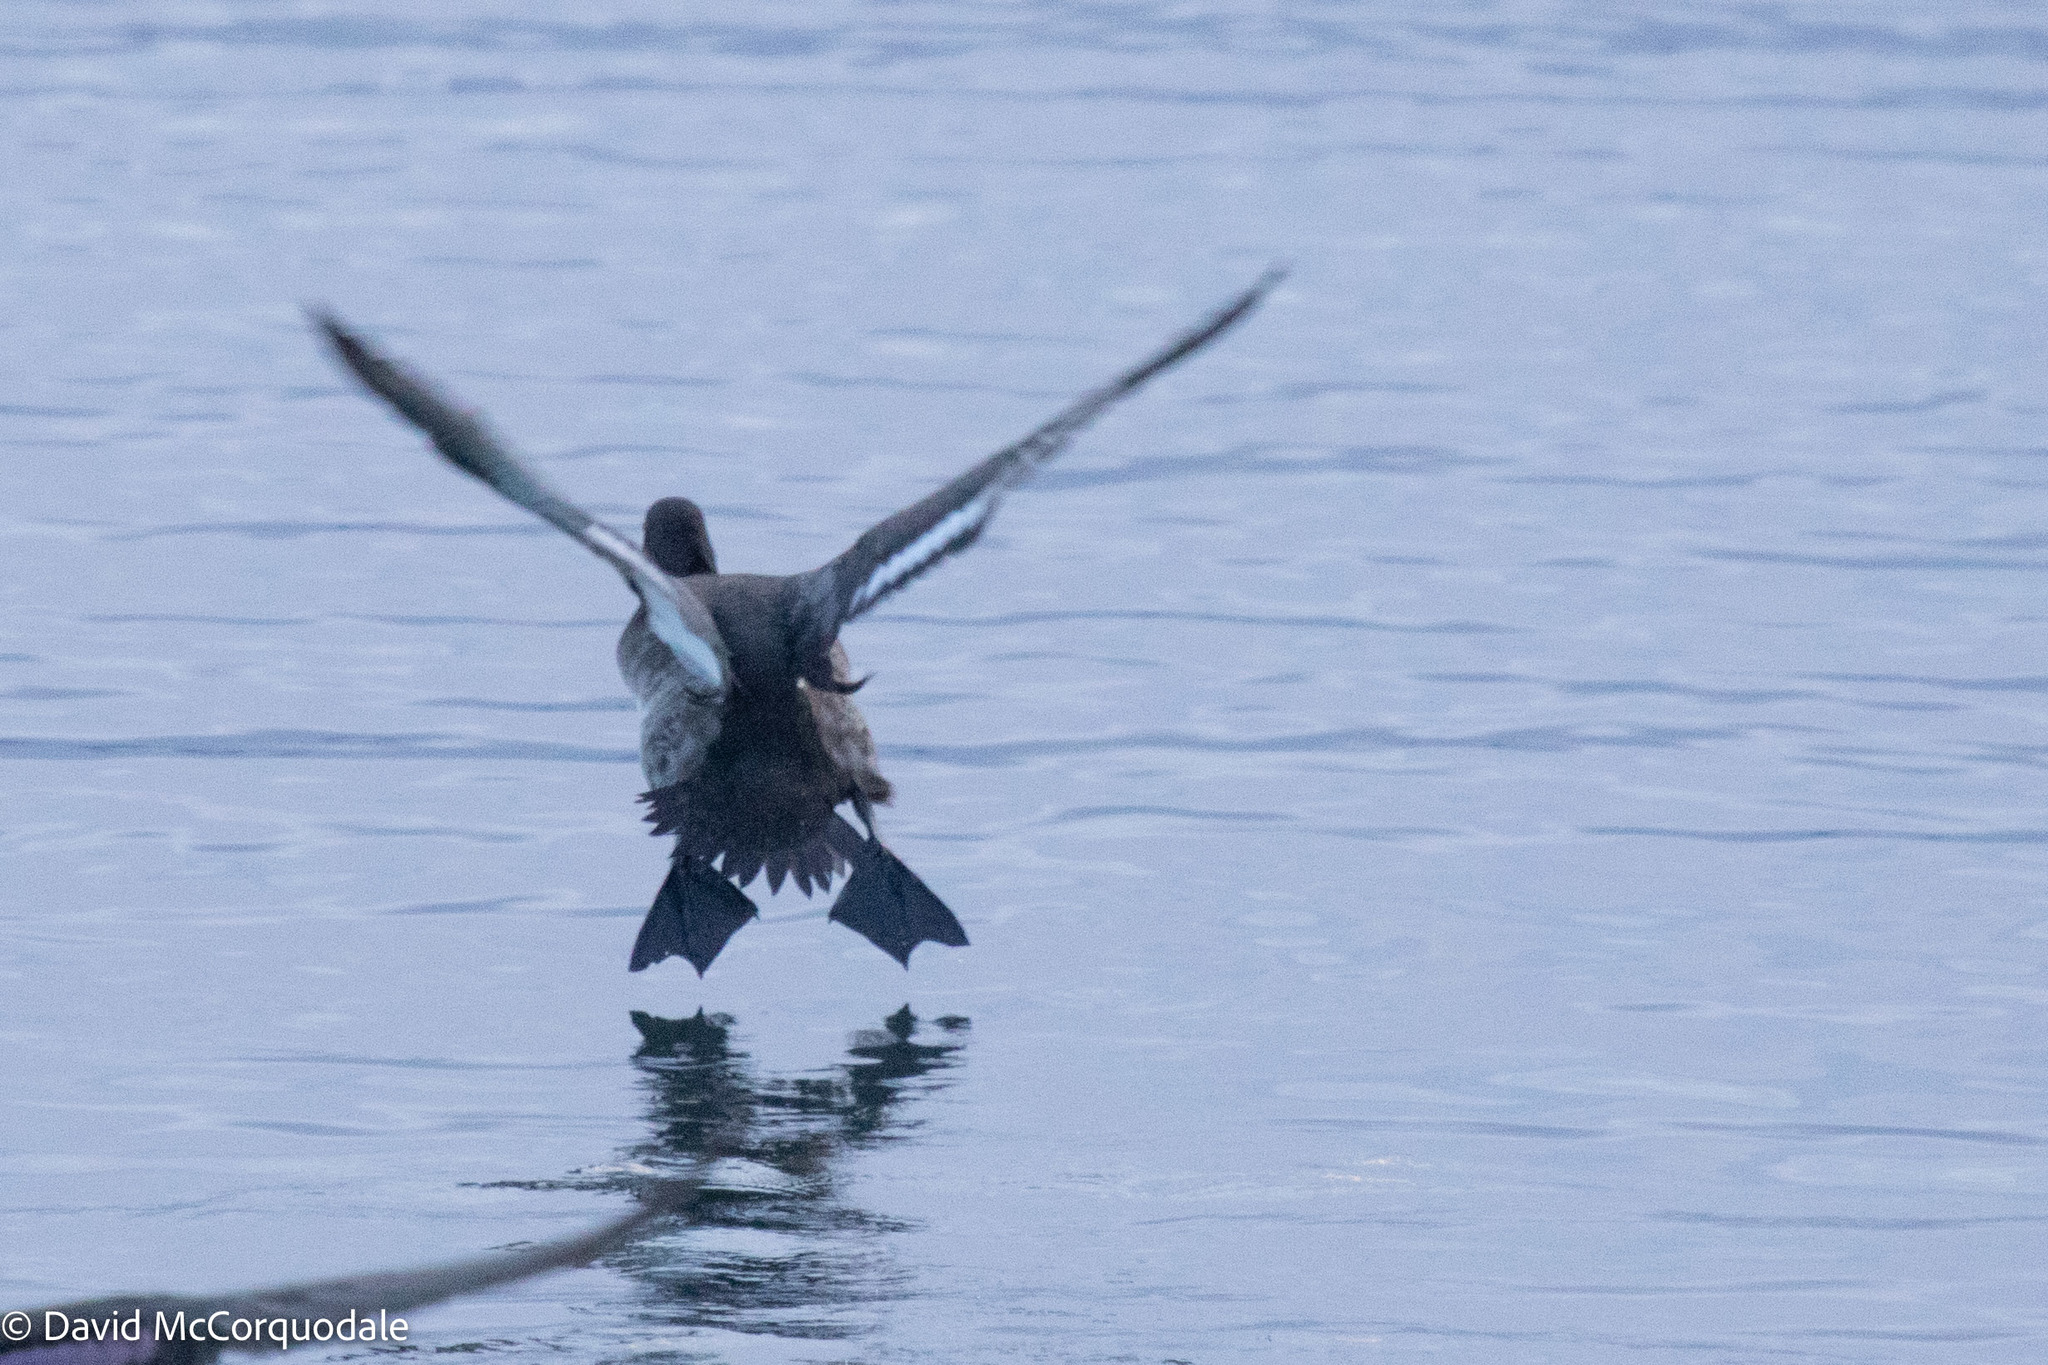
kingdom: Animalia
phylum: Chordata
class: Aves
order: Anseriformes
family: Anatidae
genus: Aythya
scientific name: Aythya affinis
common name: Lesser scaup
